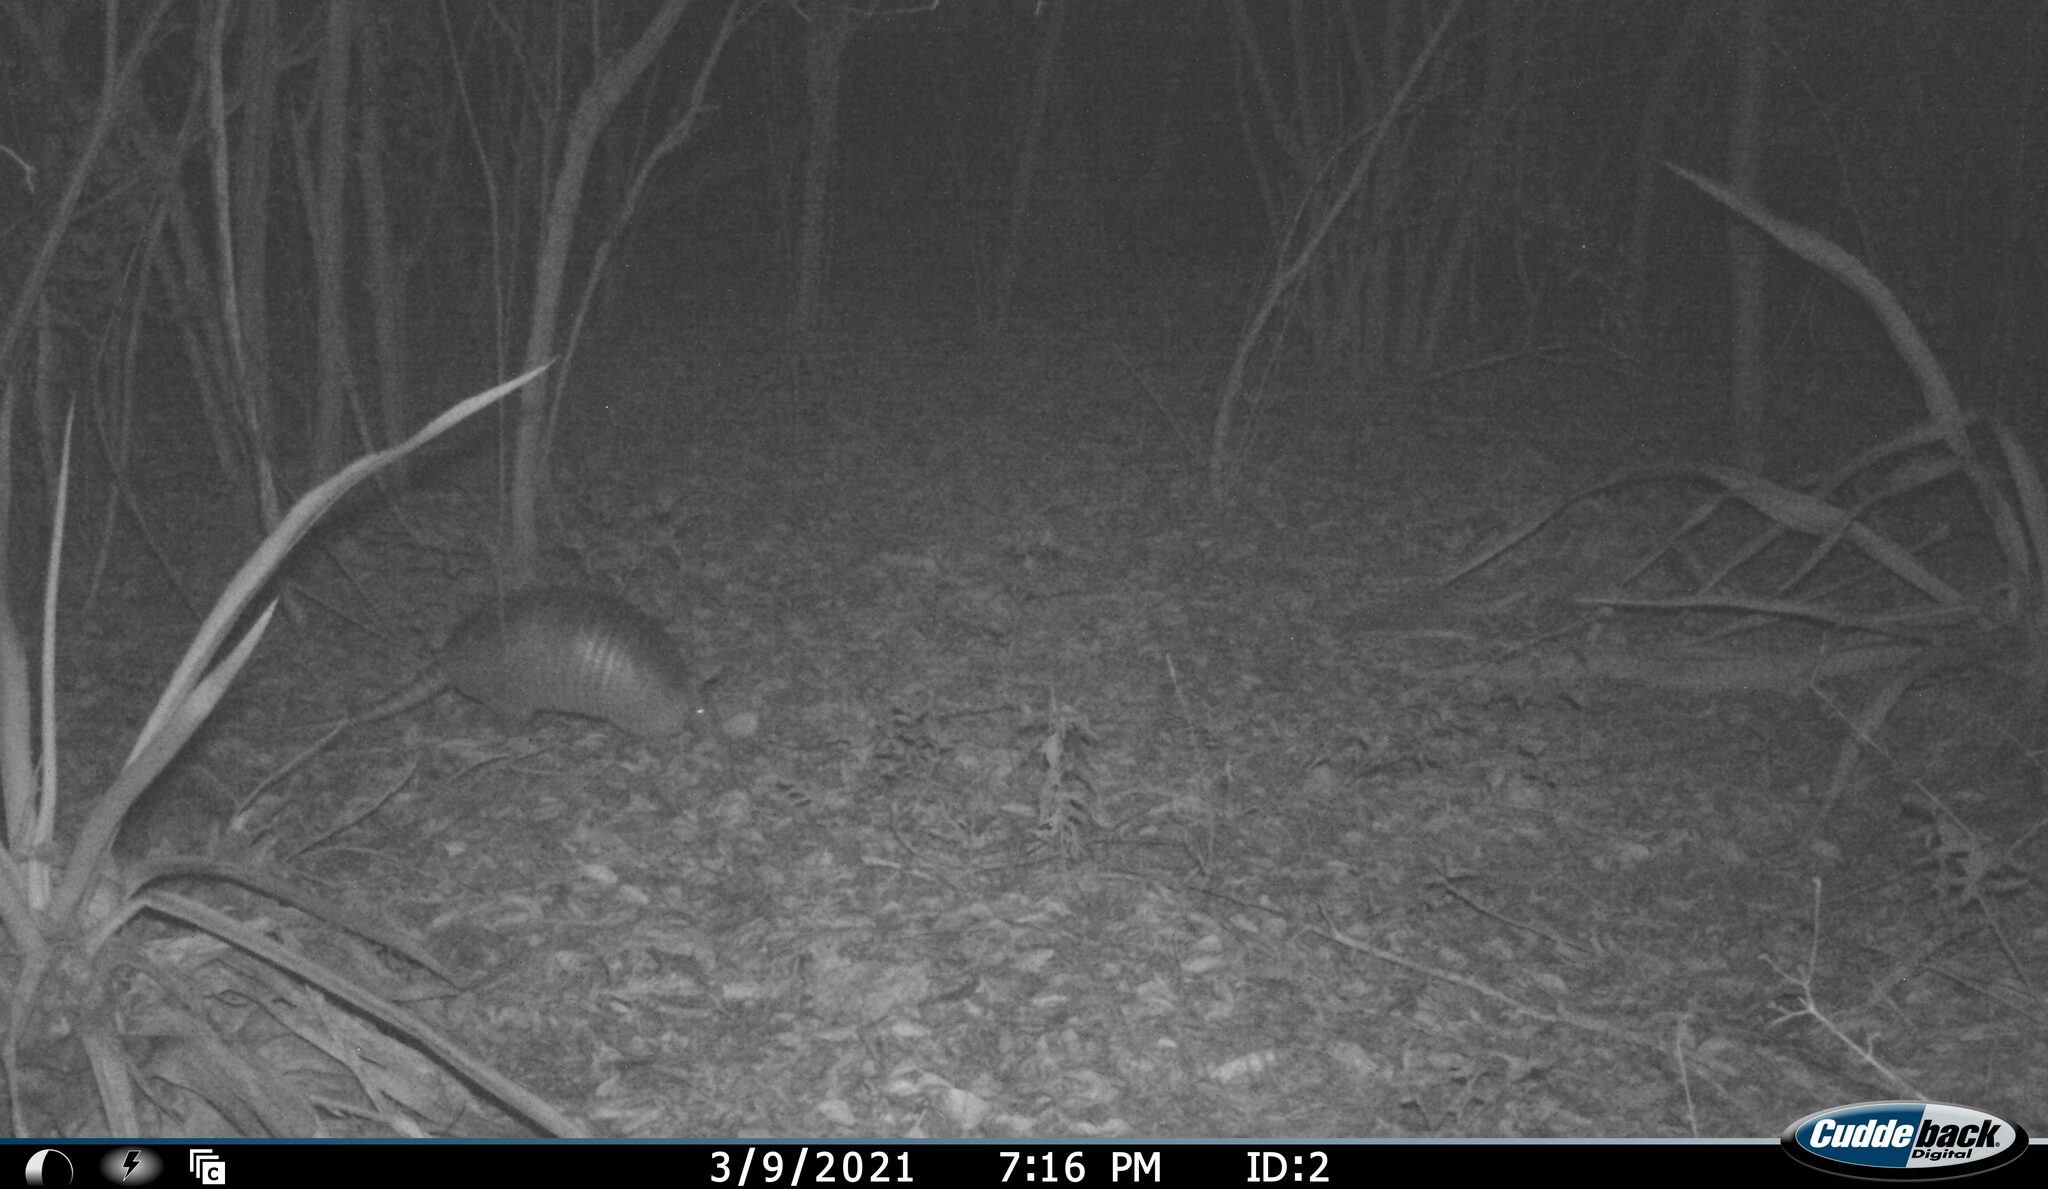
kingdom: Animalia
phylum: Chordata
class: Mammalia
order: Cingulata
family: Dasypodidae
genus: Dasypus
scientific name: Dasypus novemcinctus
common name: Nine-banded armadillo
